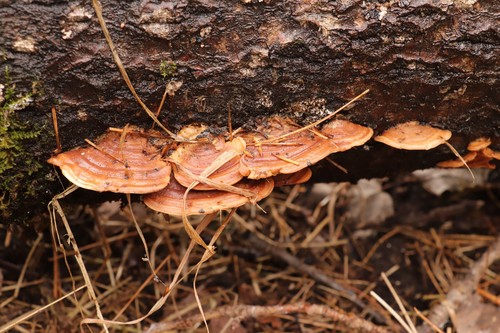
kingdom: Fungi
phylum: Basidiomycota
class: Agaricomycetes
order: Polyporales
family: Steccherinaceae
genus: Metuloidea
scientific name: Metuloidea murashkinskyi
